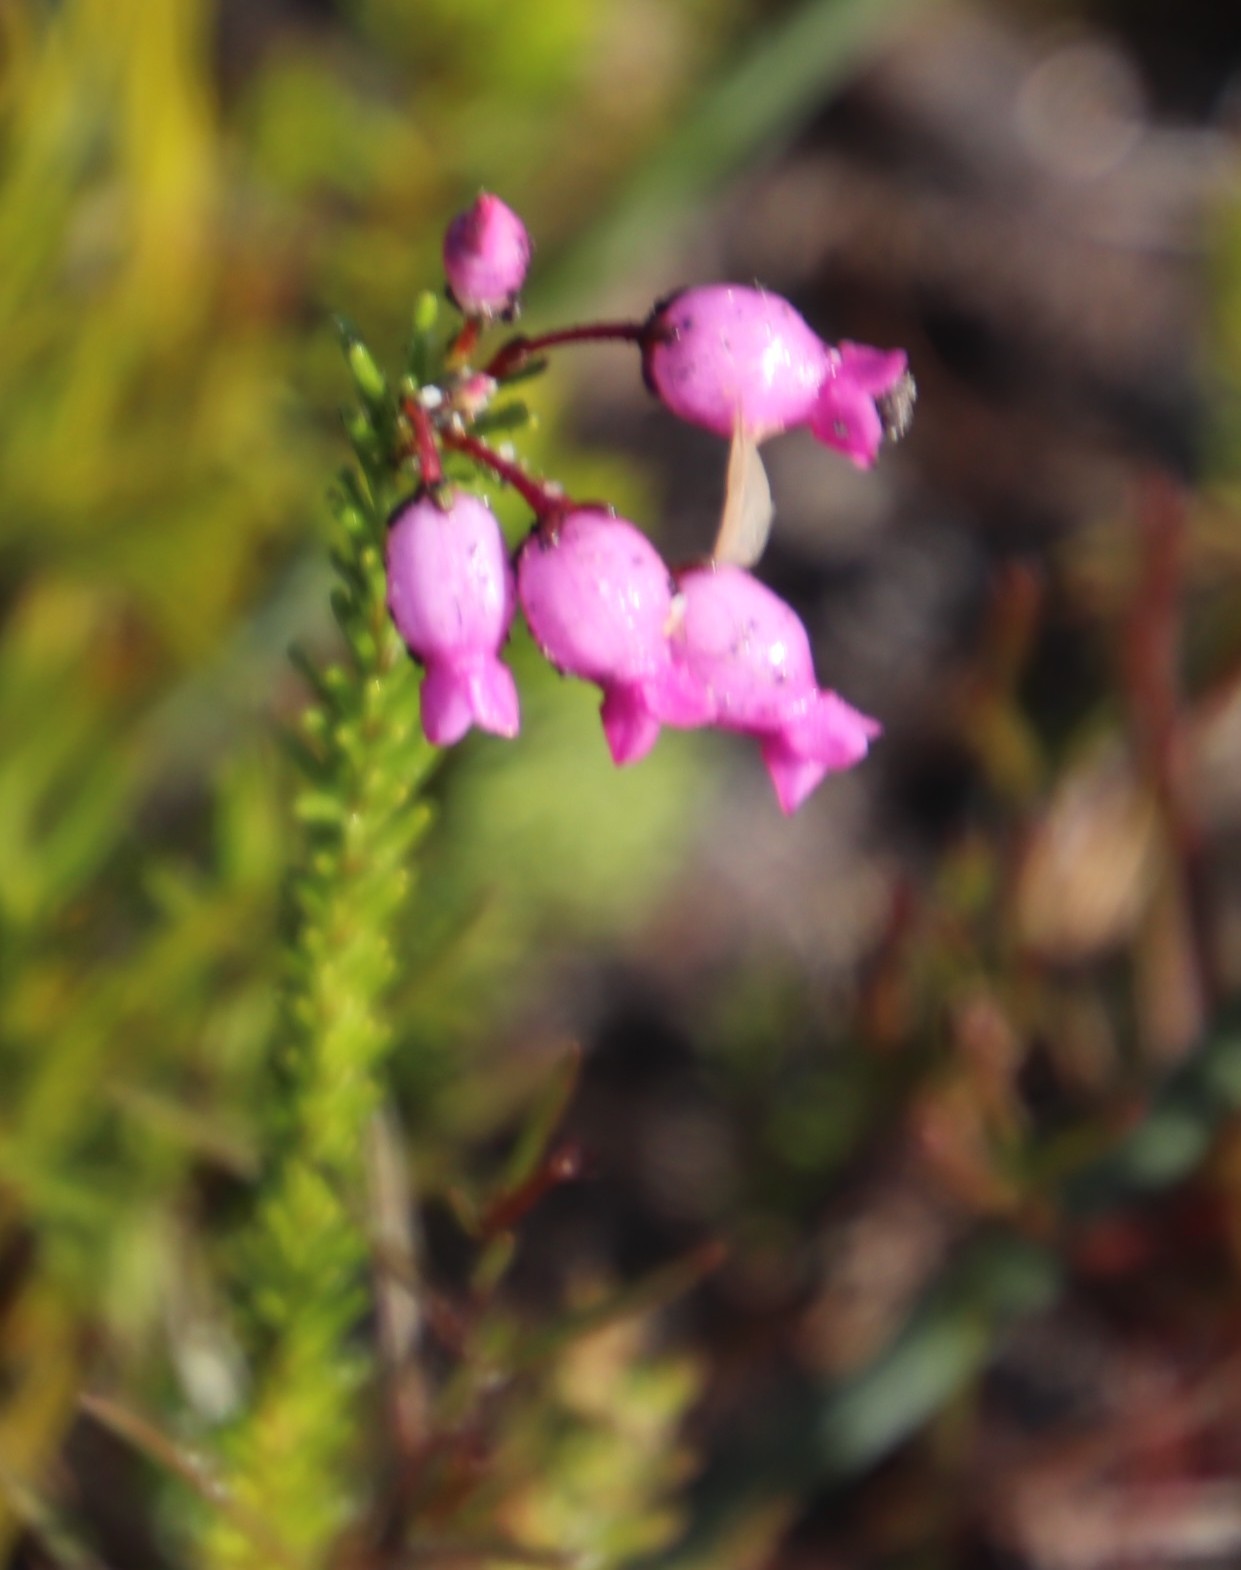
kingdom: Plantae
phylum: Tracheophyta
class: Magnoliopsida
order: Ericales
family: Ericaceae
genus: Erica
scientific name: Erica obliqua
